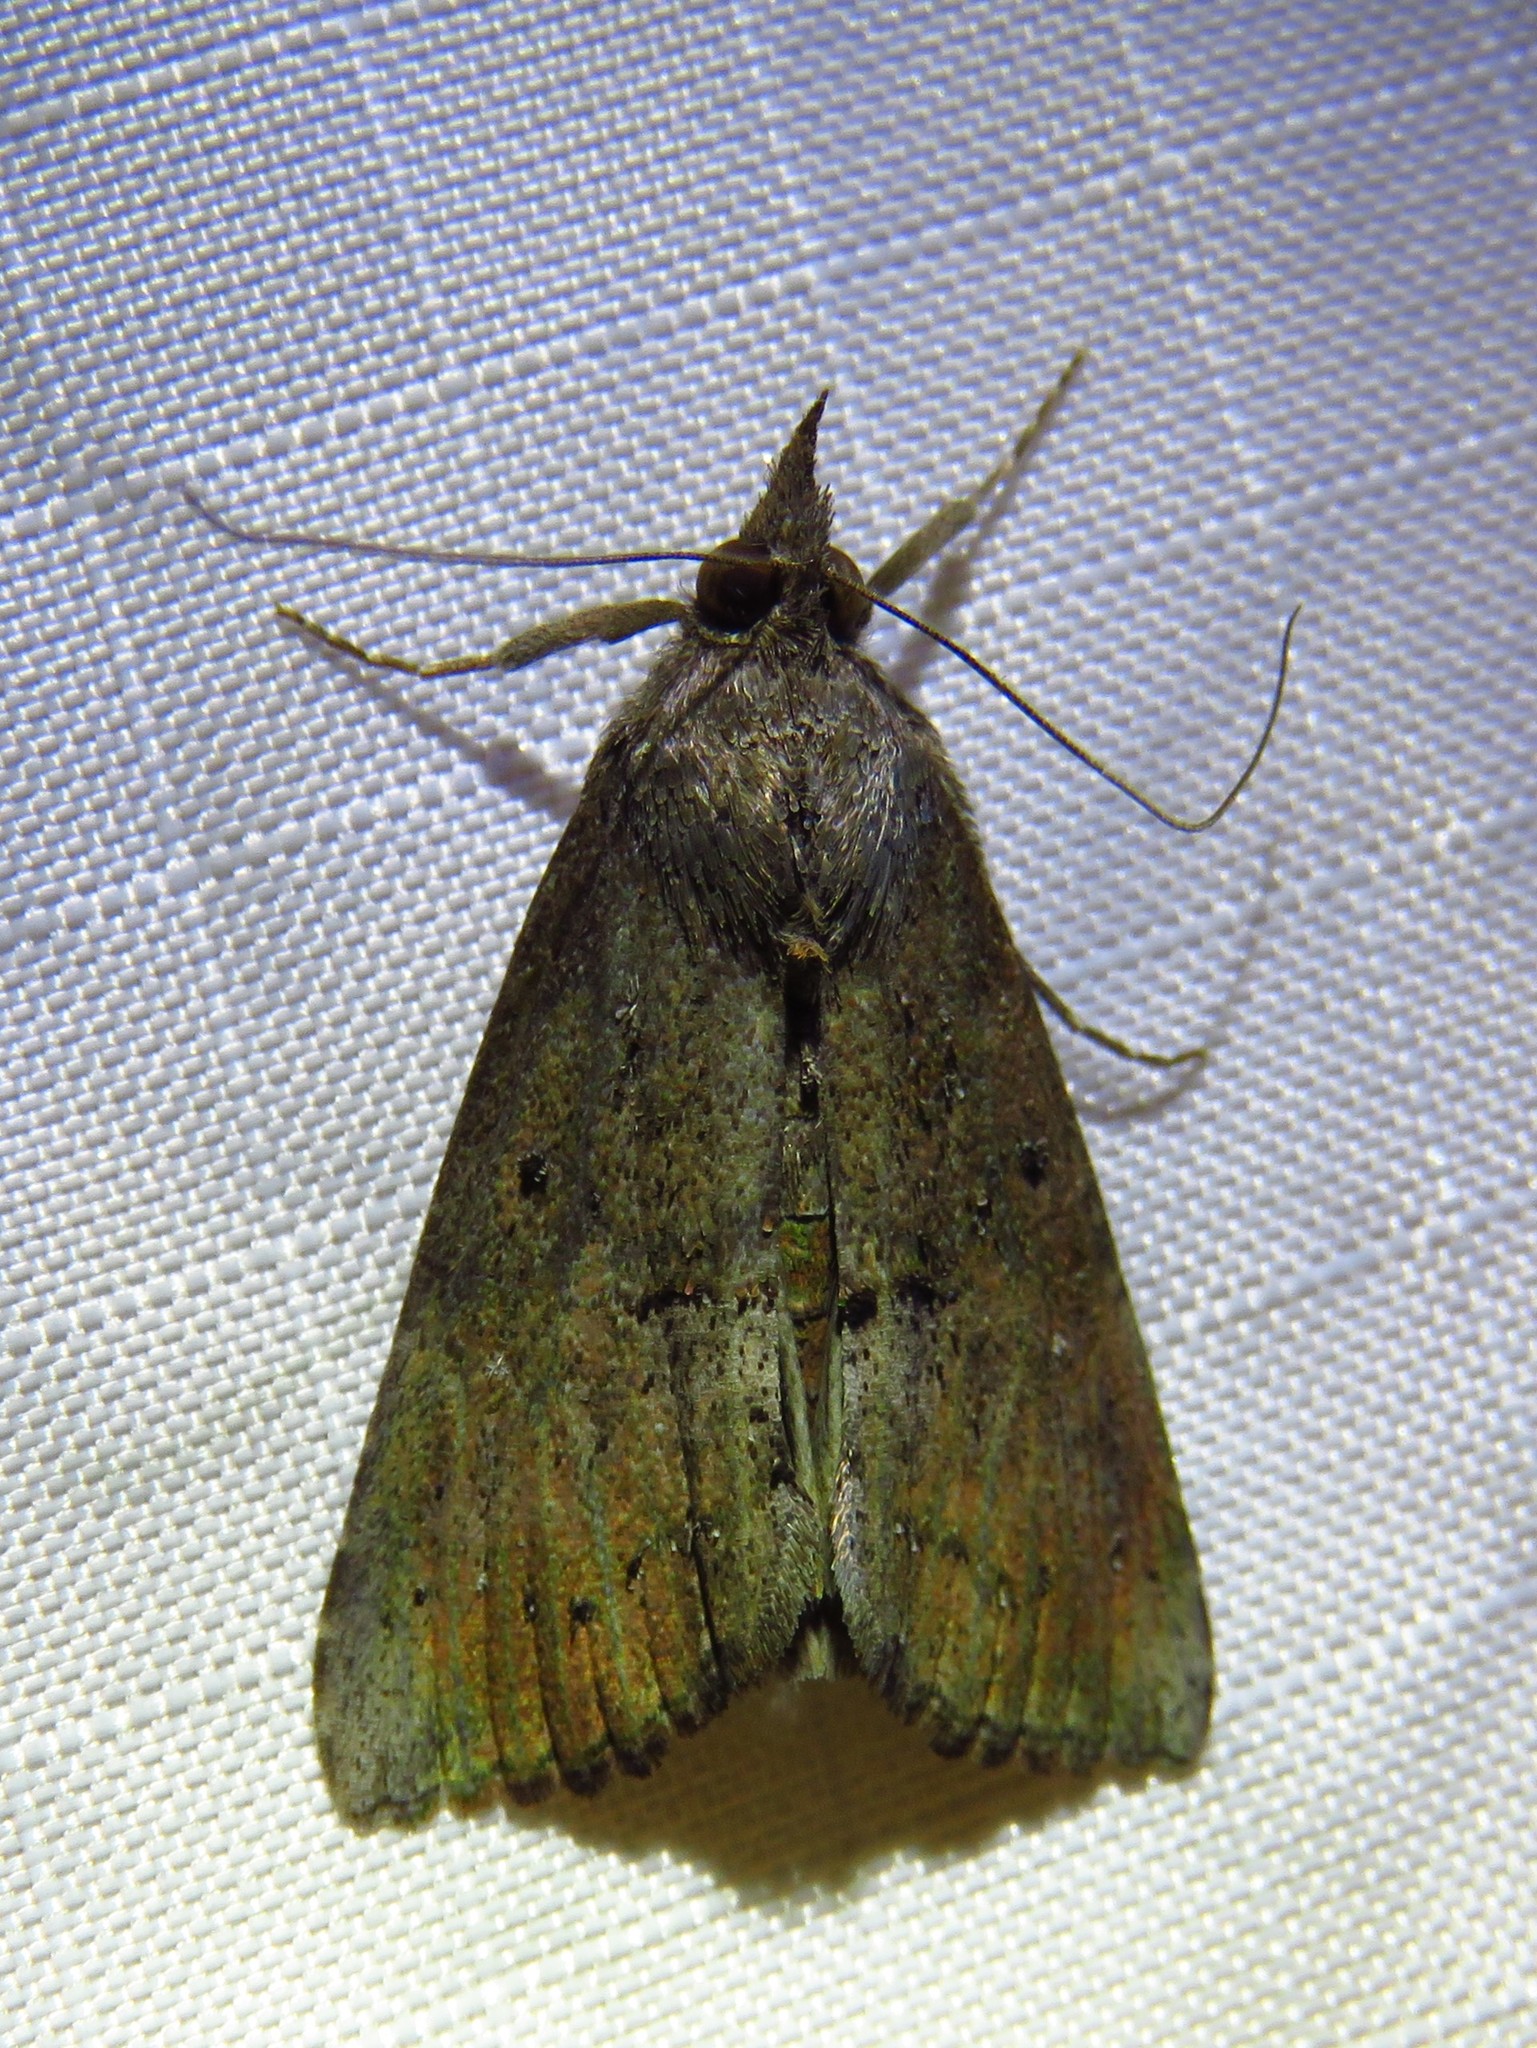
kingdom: Animalia
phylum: Arthropoda
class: Insecta
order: Lepidoptera
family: Erebidae
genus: Hypena
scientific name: Hypena scabra
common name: Green cloverworm
